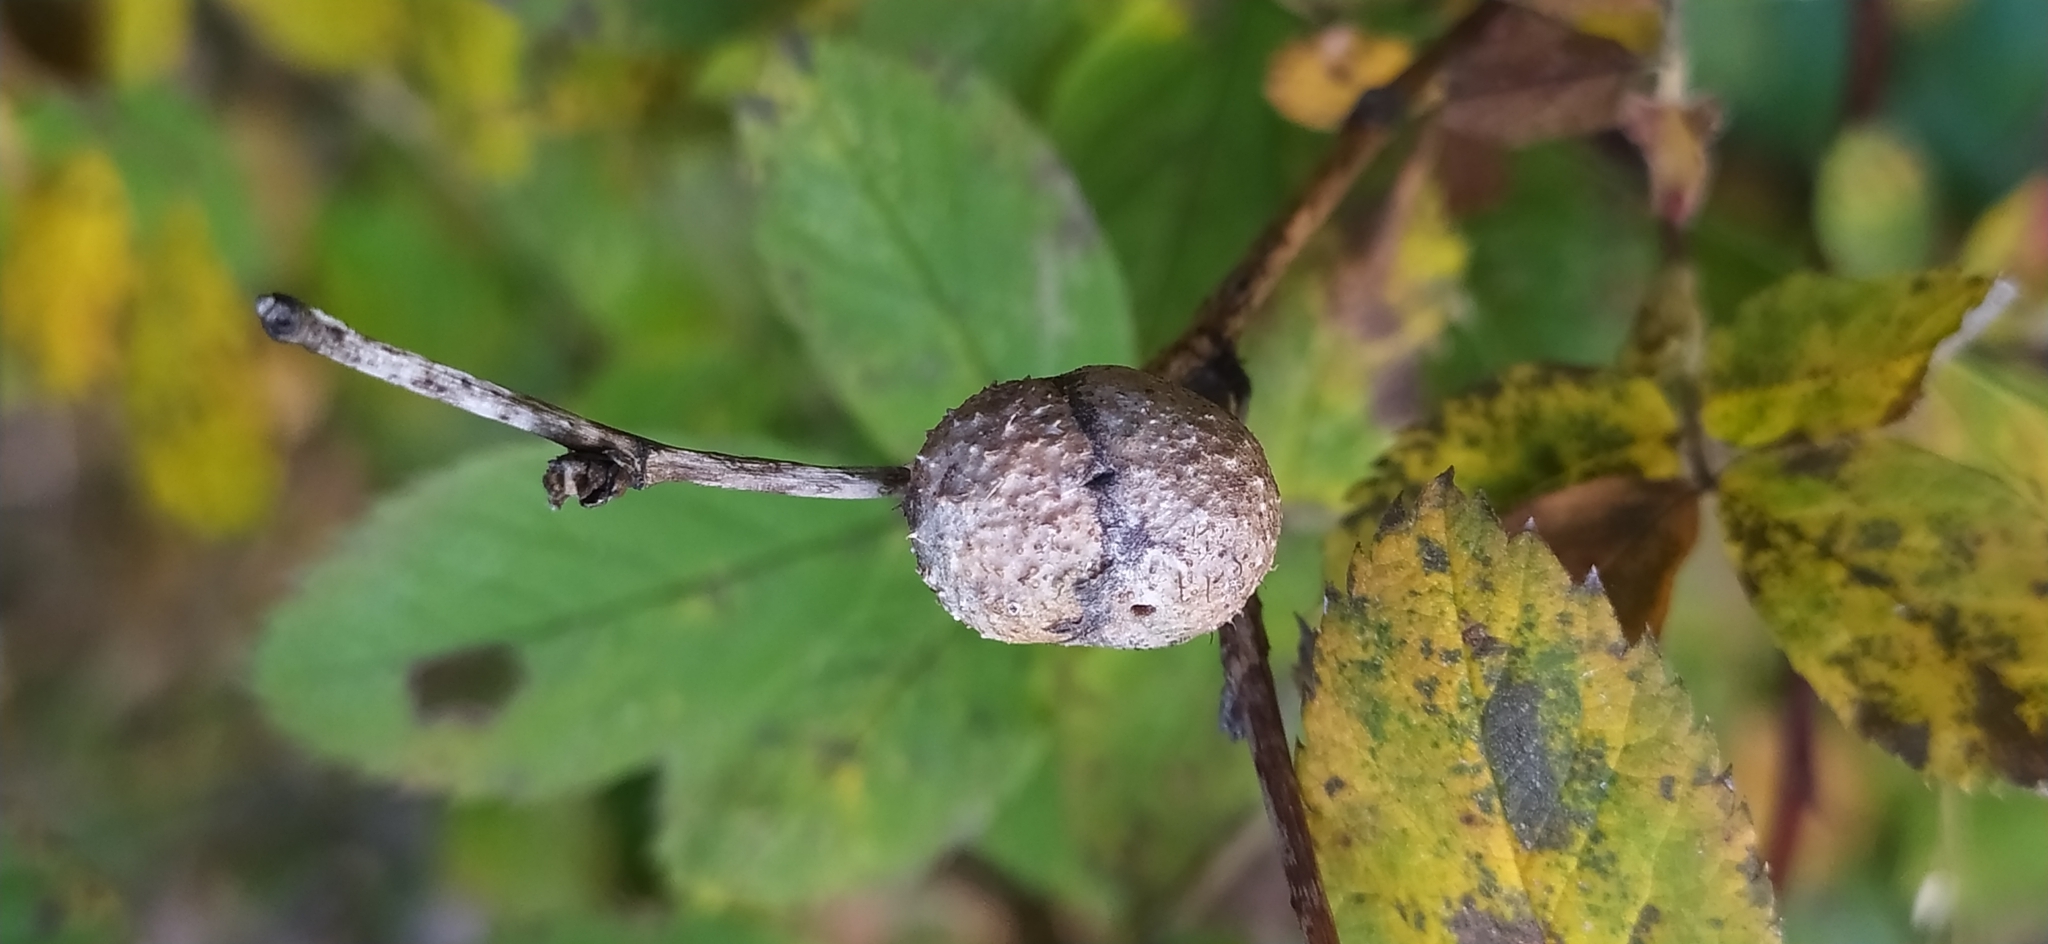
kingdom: Animalia
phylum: Arthropoda
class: Insecta
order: Hymenoptera
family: Cynipidae
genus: Diplolepis
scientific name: Diplolepis mayri
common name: Gall wasp
